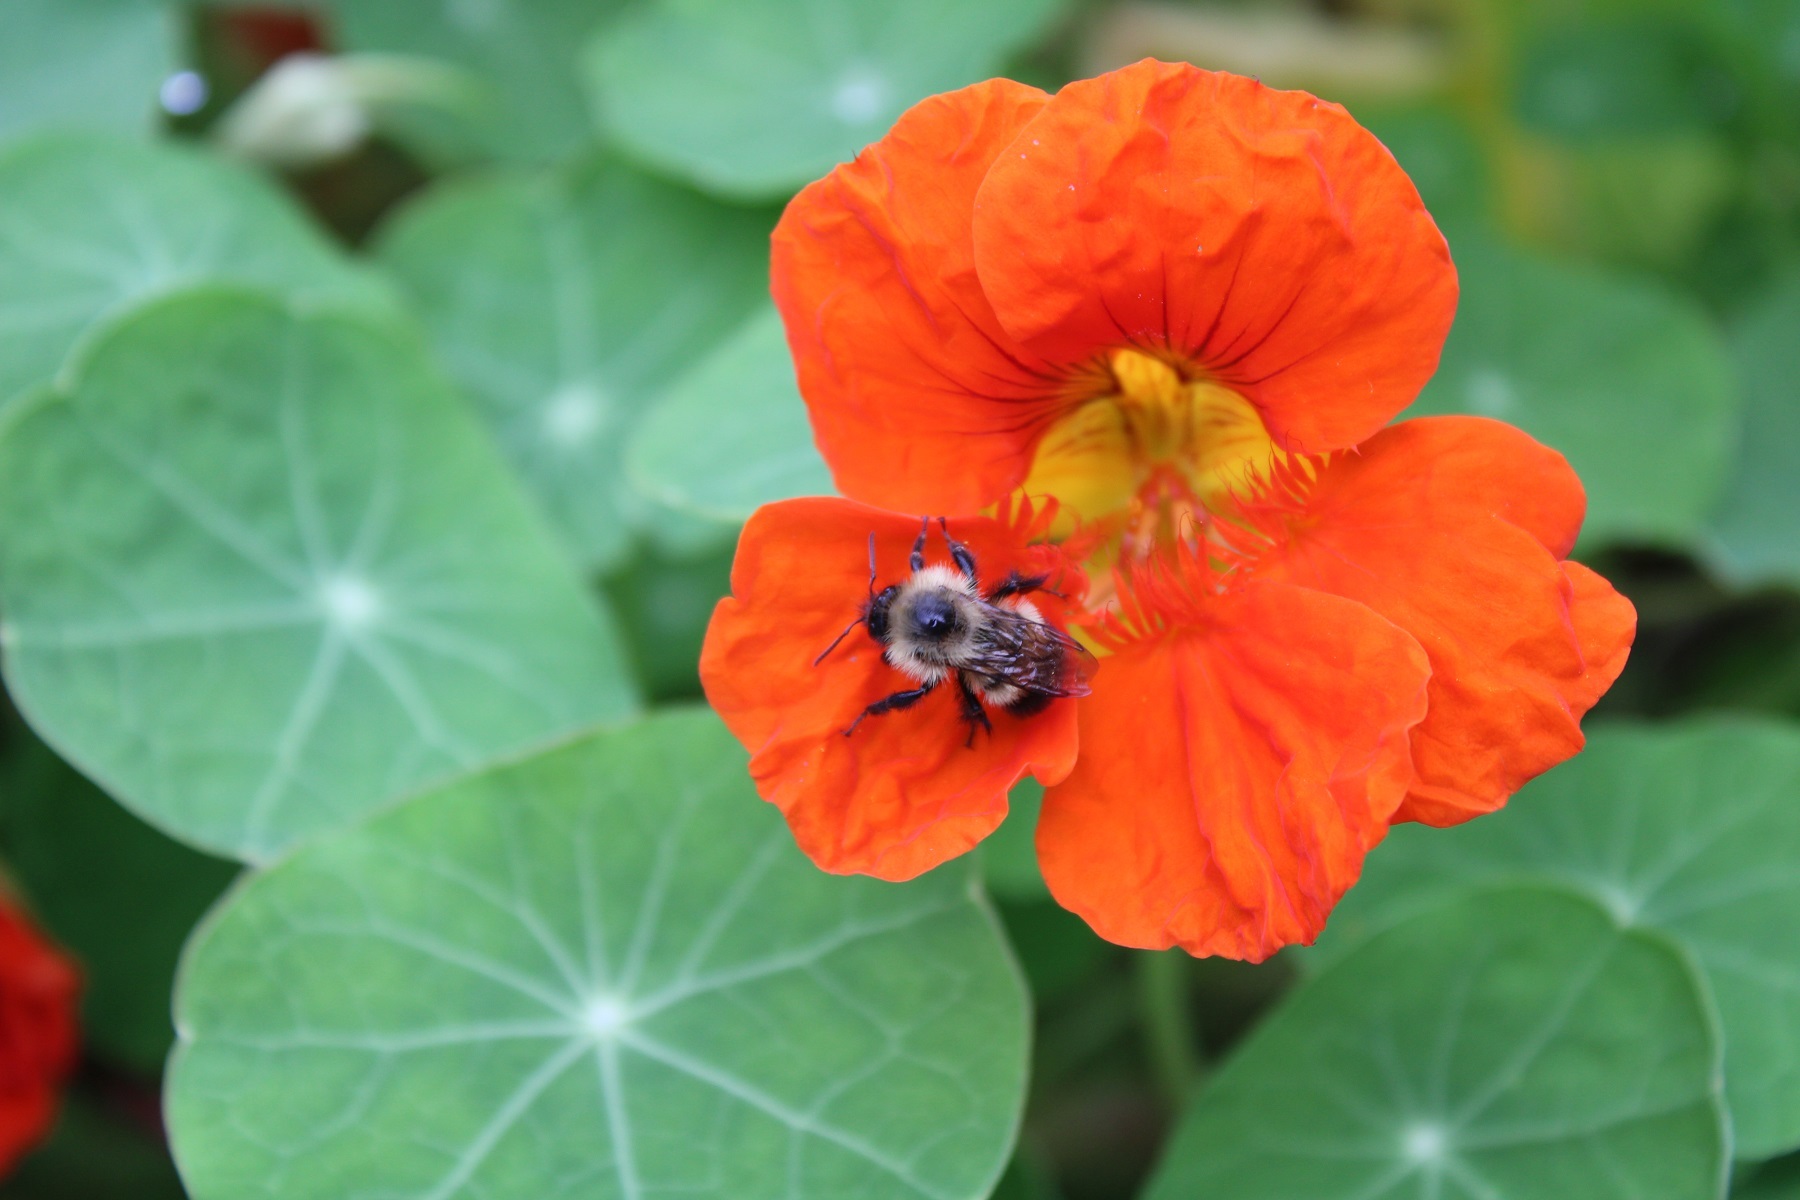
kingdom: Animalia
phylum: Arthropoda
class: Insecta
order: Hymenoptera
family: Apidae
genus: Pyrobombus
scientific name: Pyrobombus
